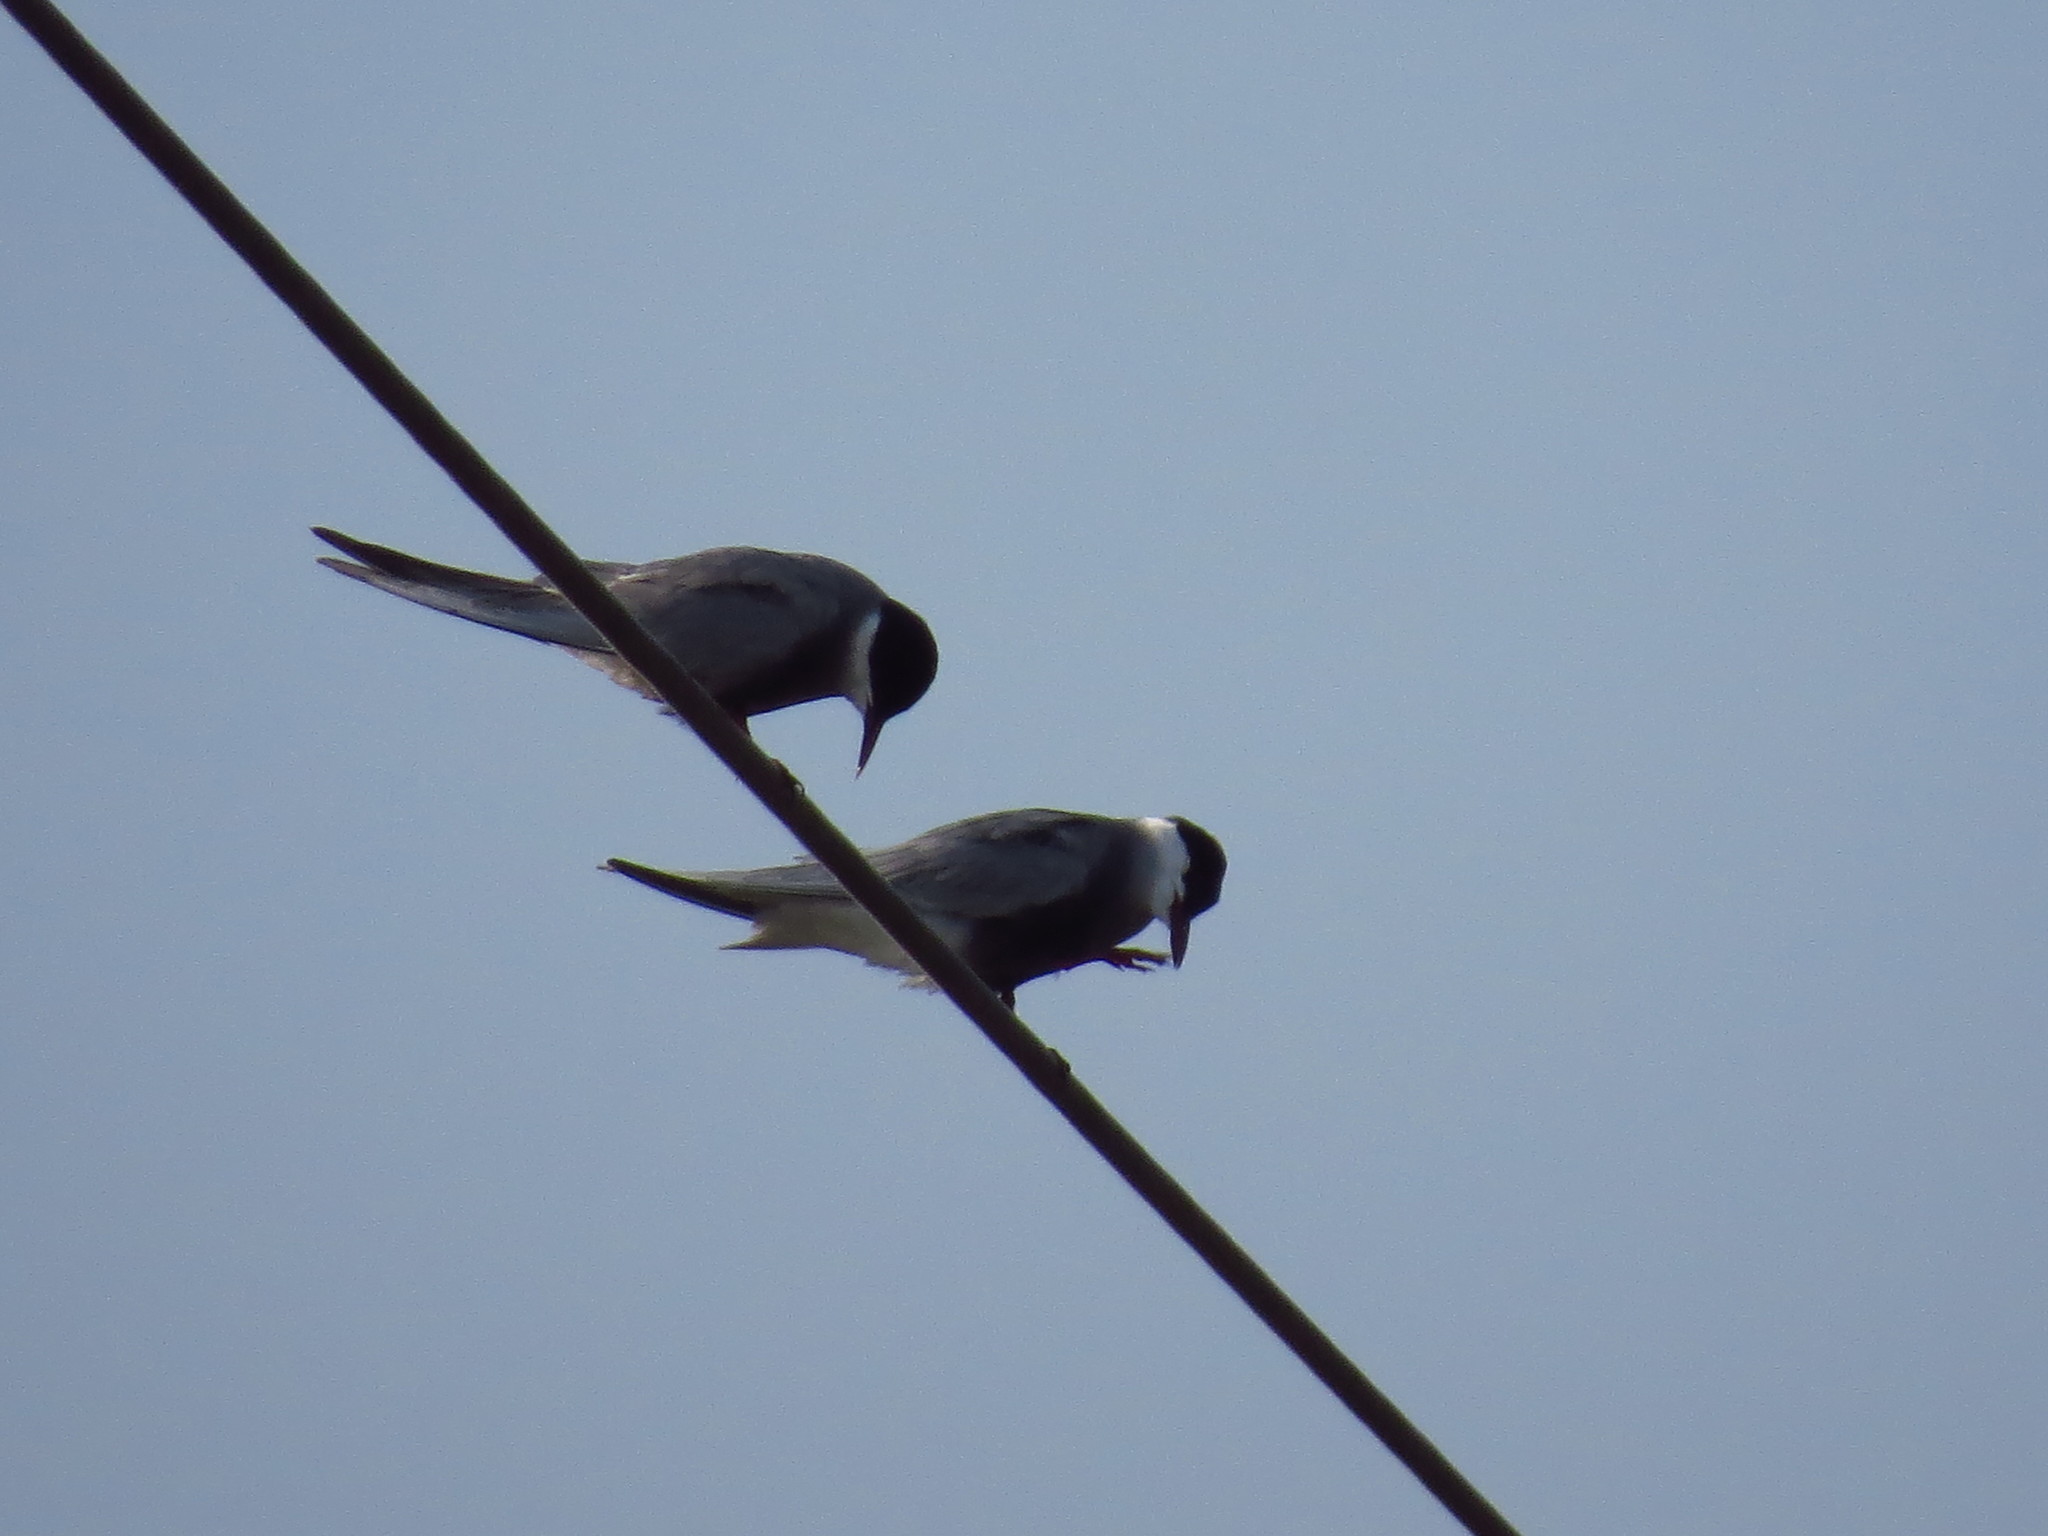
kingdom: Animalia
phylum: Chordata
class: Aves
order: Charadriiformes
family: Laridae
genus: Chlidonias
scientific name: Chlidonias hybrida
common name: Whiskered tern
